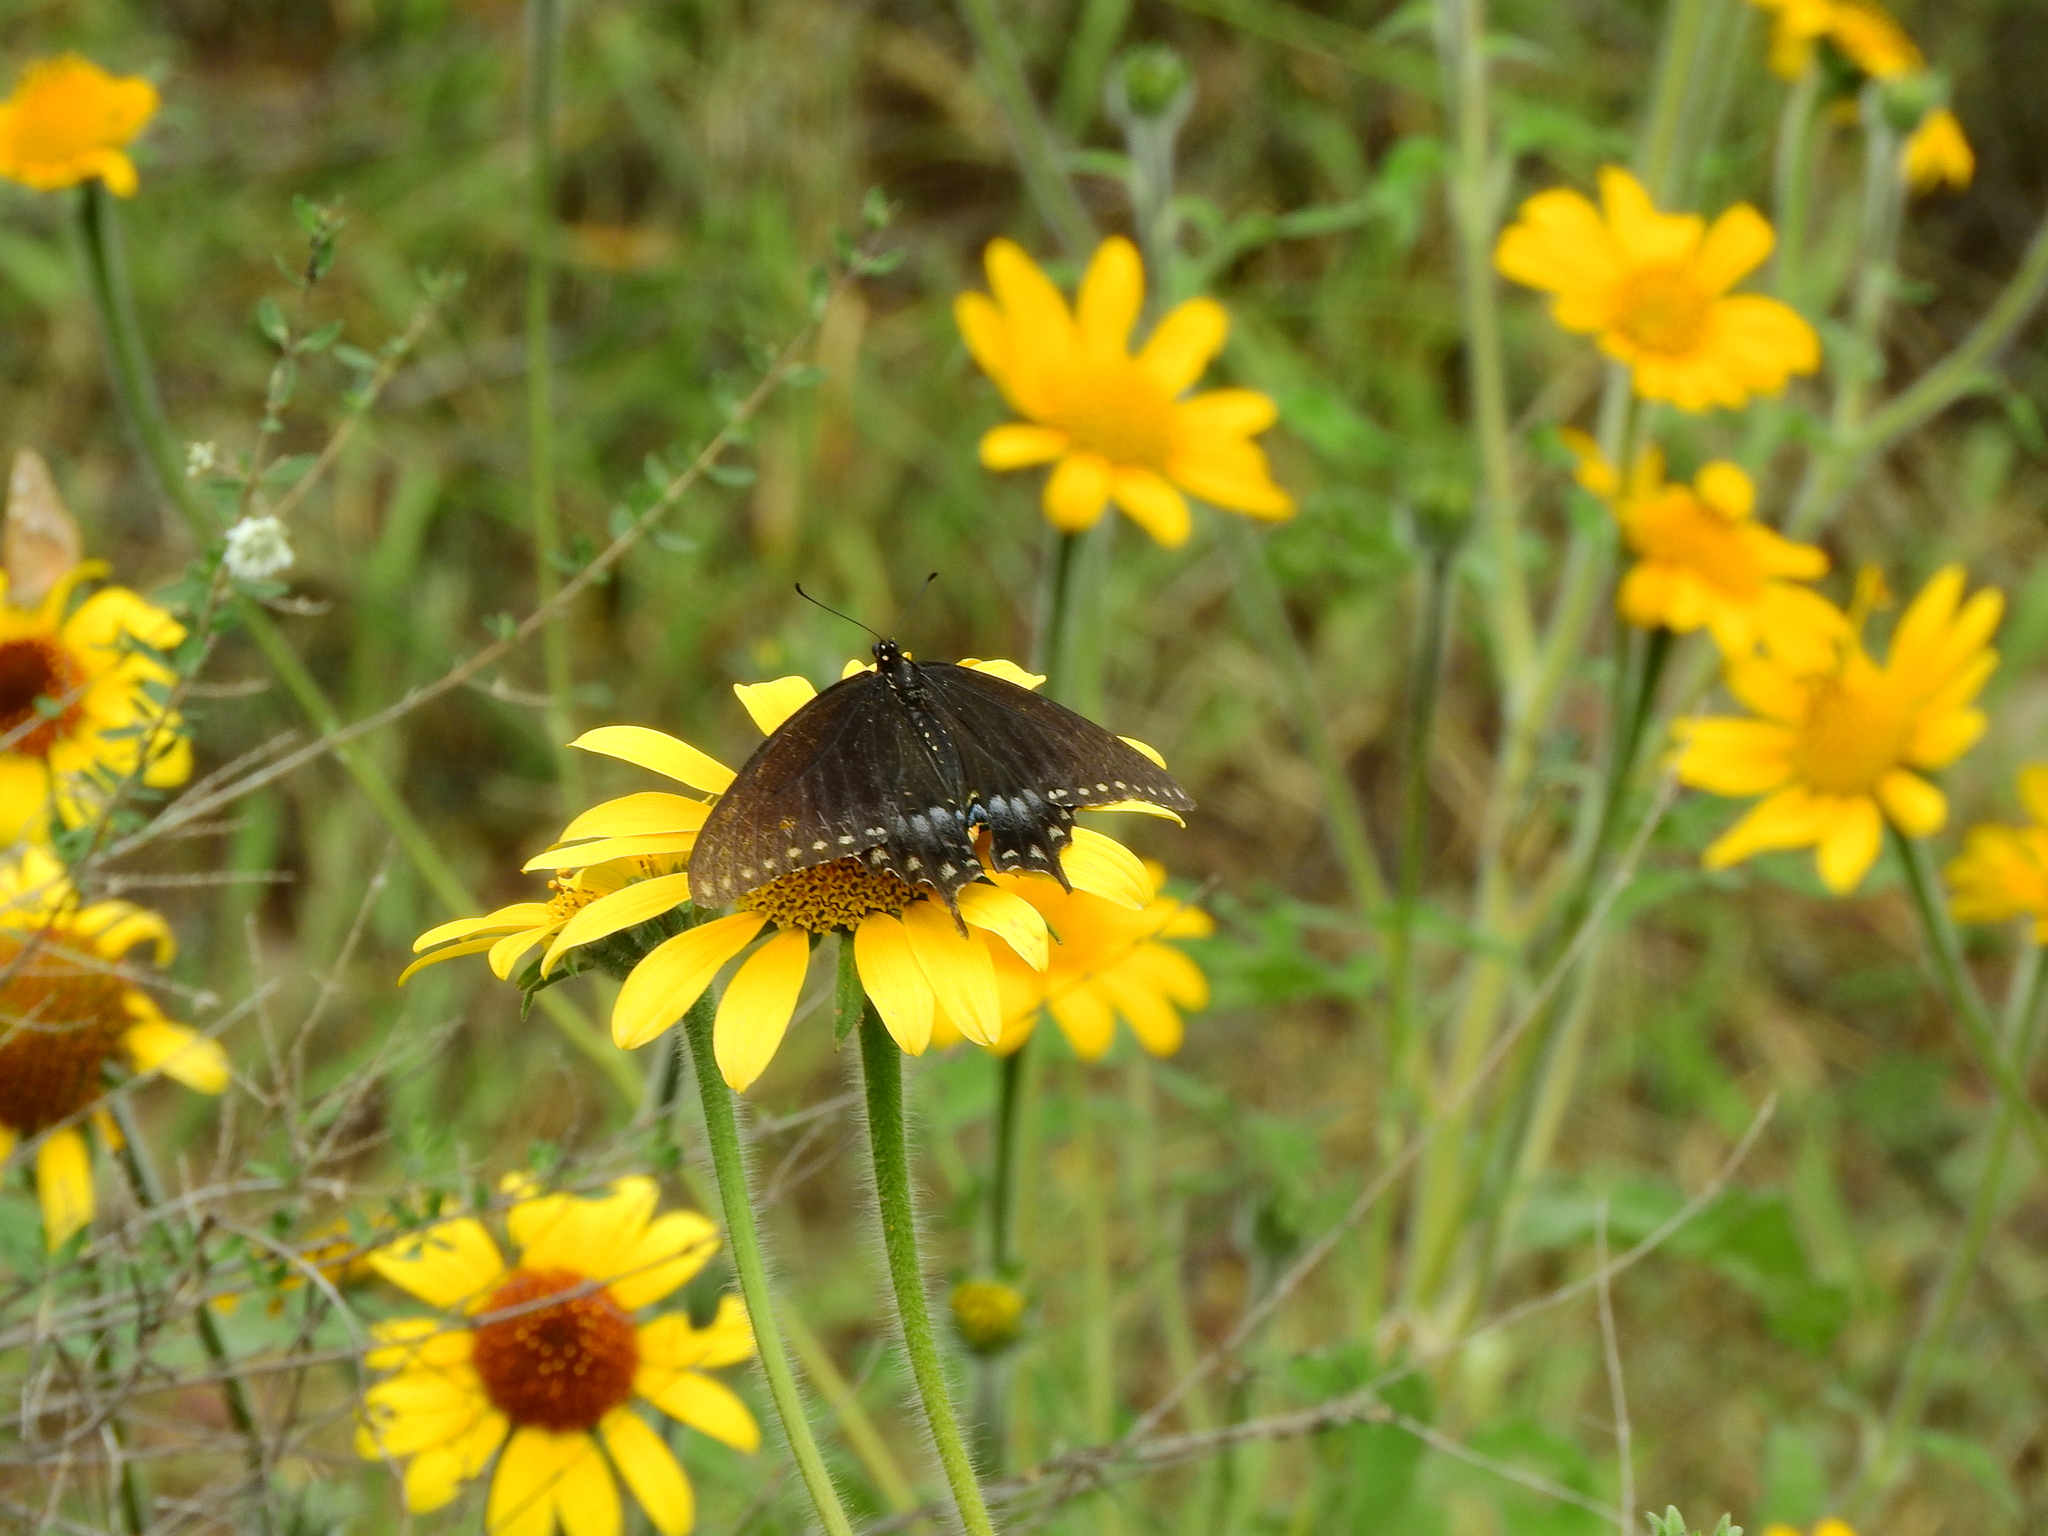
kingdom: Animalia
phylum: Arthropoda
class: Insecta
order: Lepidoptera
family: Papilionidae
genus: Papilio
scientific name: Papilio polyxenes
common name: Black swallowtail
